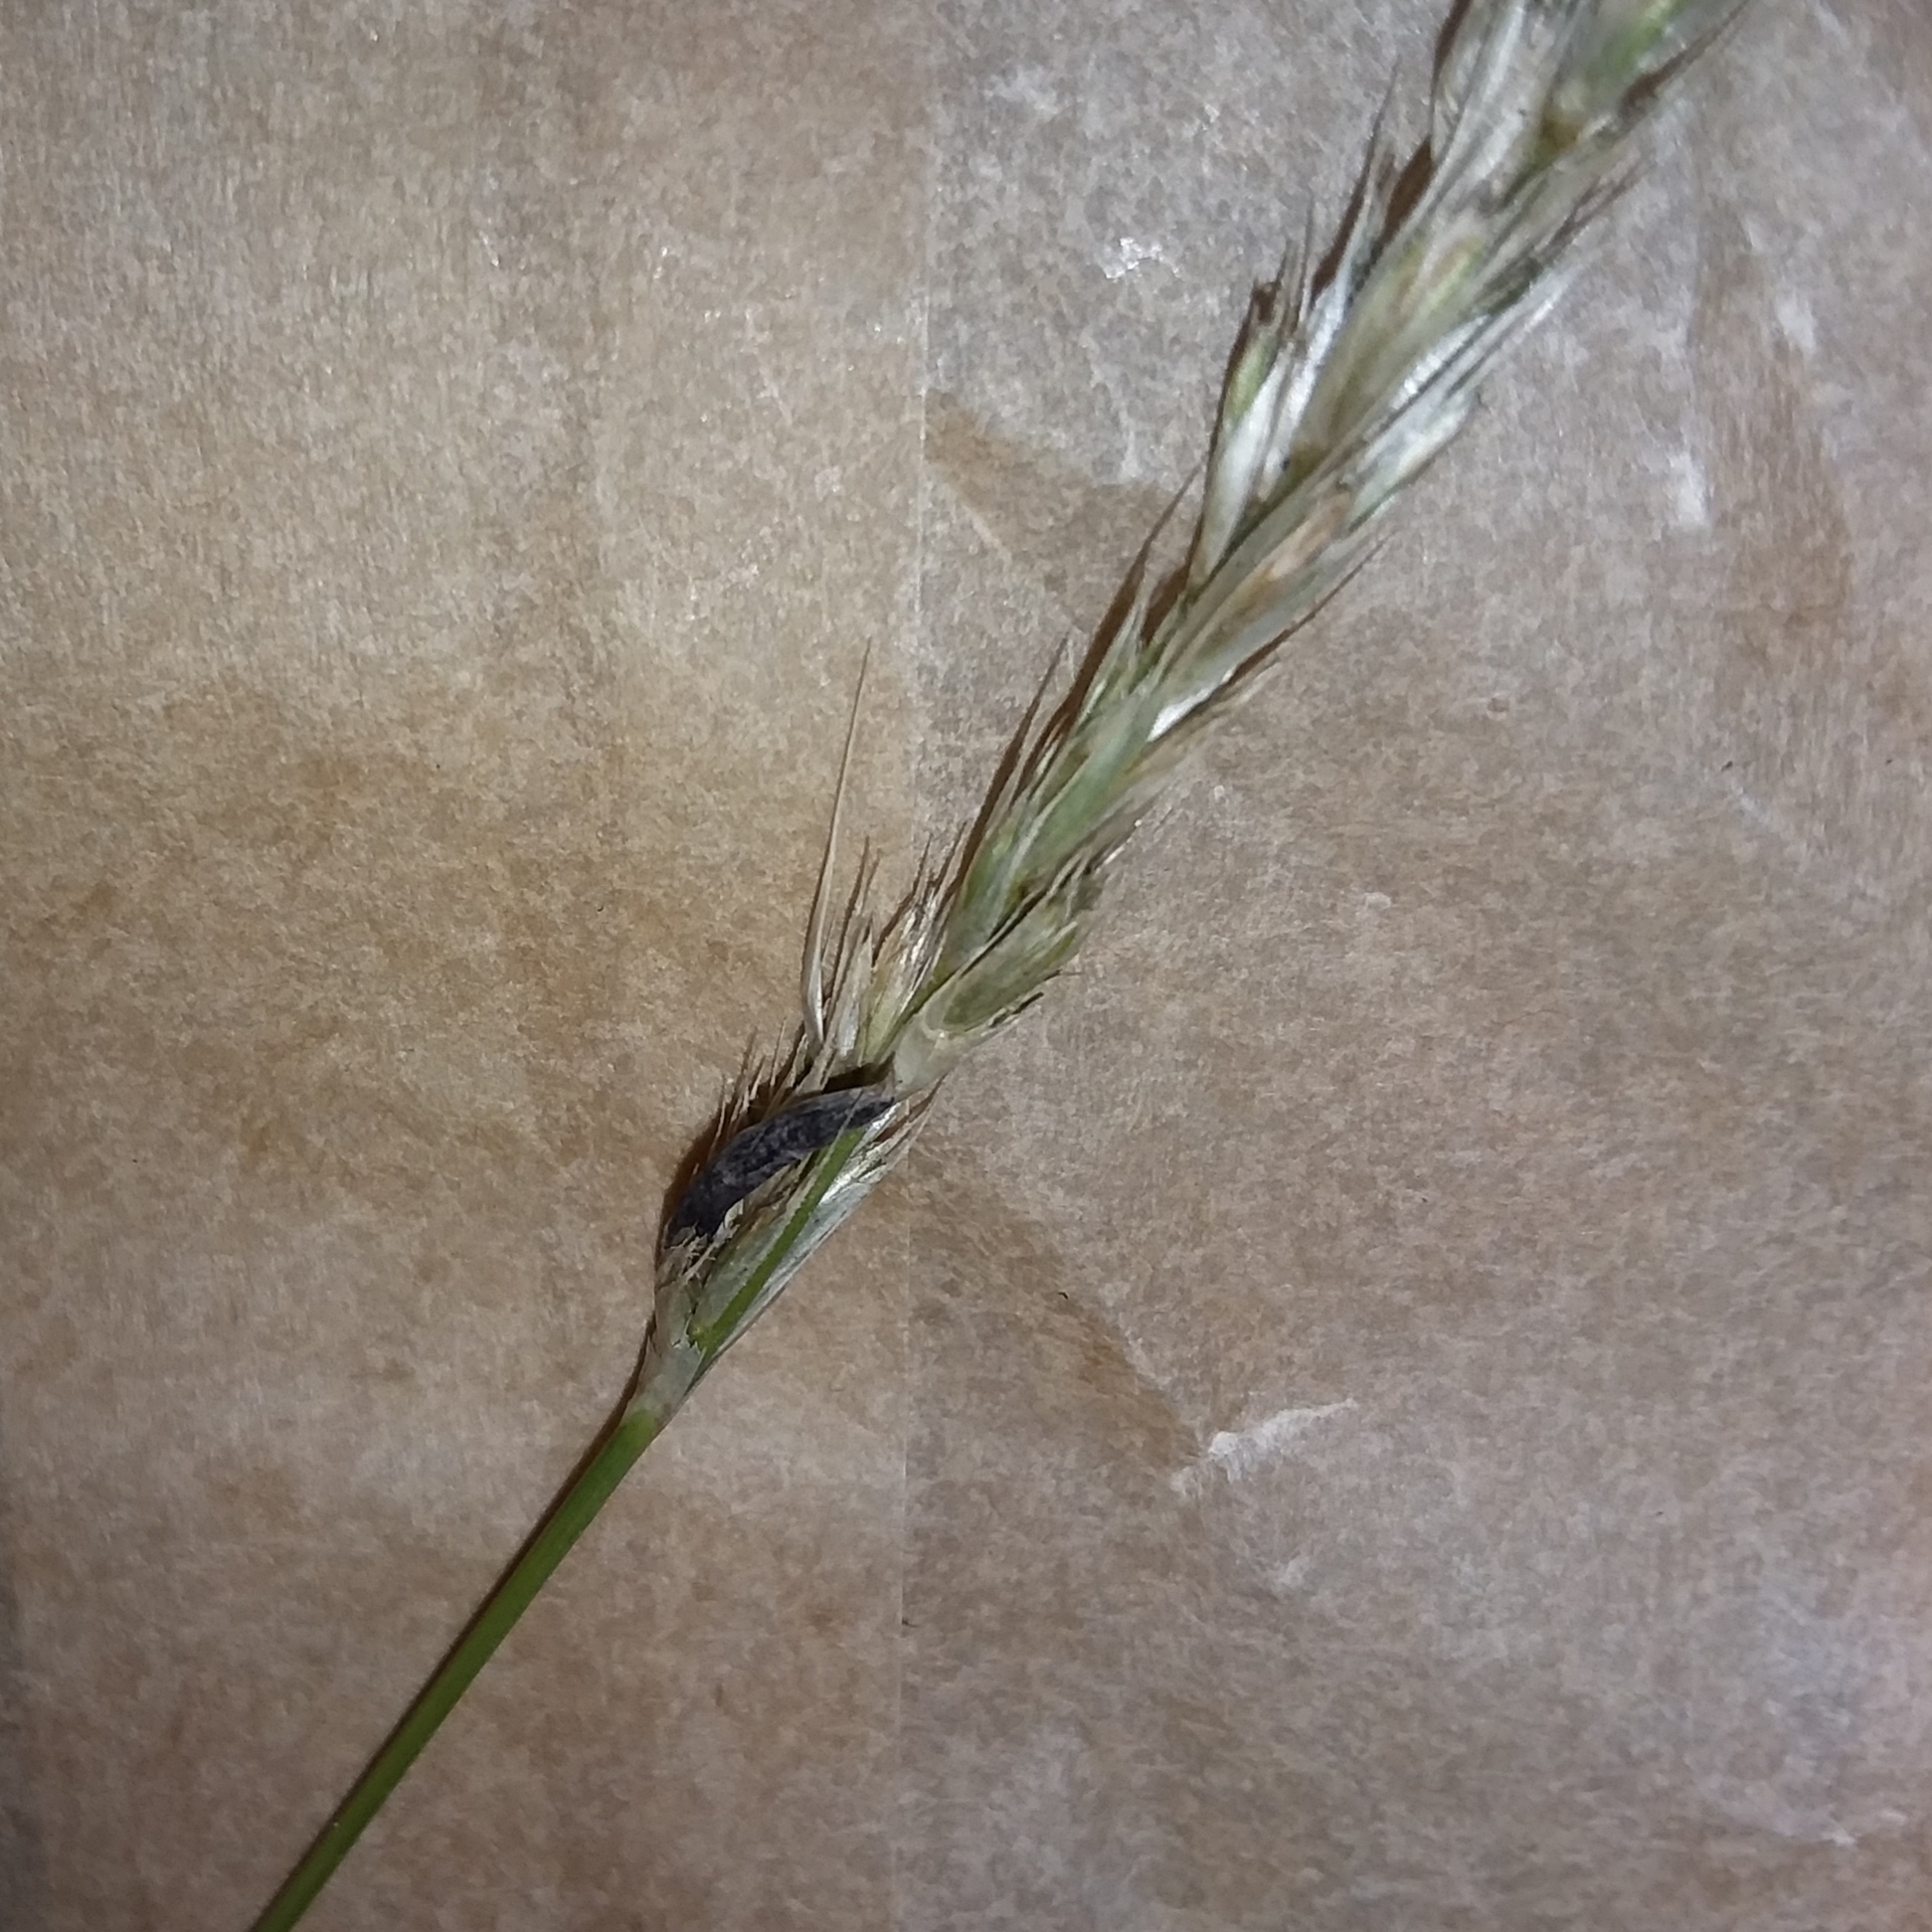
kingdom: Fungi
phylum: Ascomycota
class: Sordariomycetes
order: Hypocreales
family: Clavicipitaceae
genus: Claviceps
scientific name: Claviceps purpurea
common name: Rye ergot
